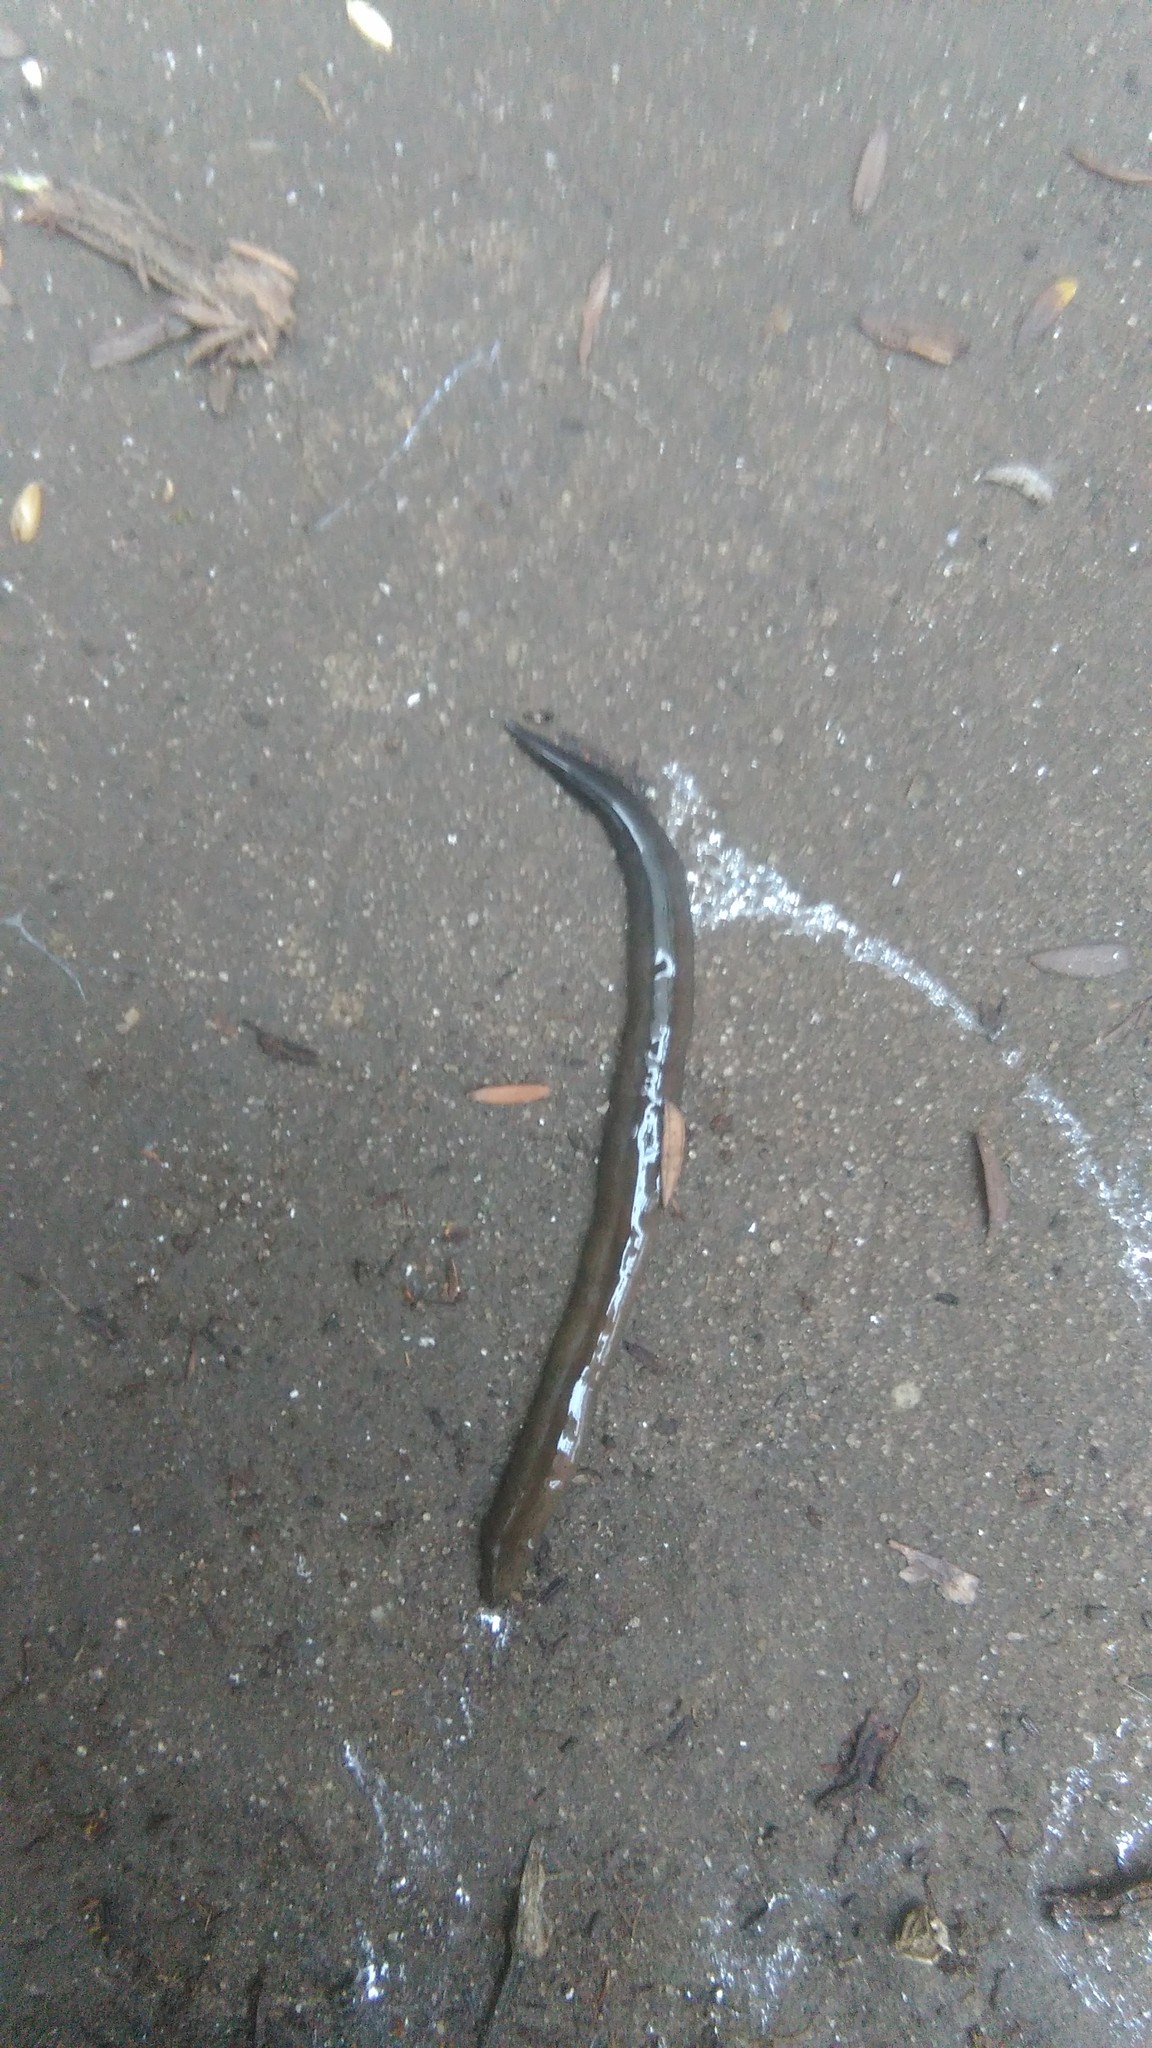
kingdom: Animalia
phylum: Platyhelminthes
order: Tricladida
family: Geoplanidae
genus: Obama
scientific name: Obama nungara
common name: Obama flatworm
